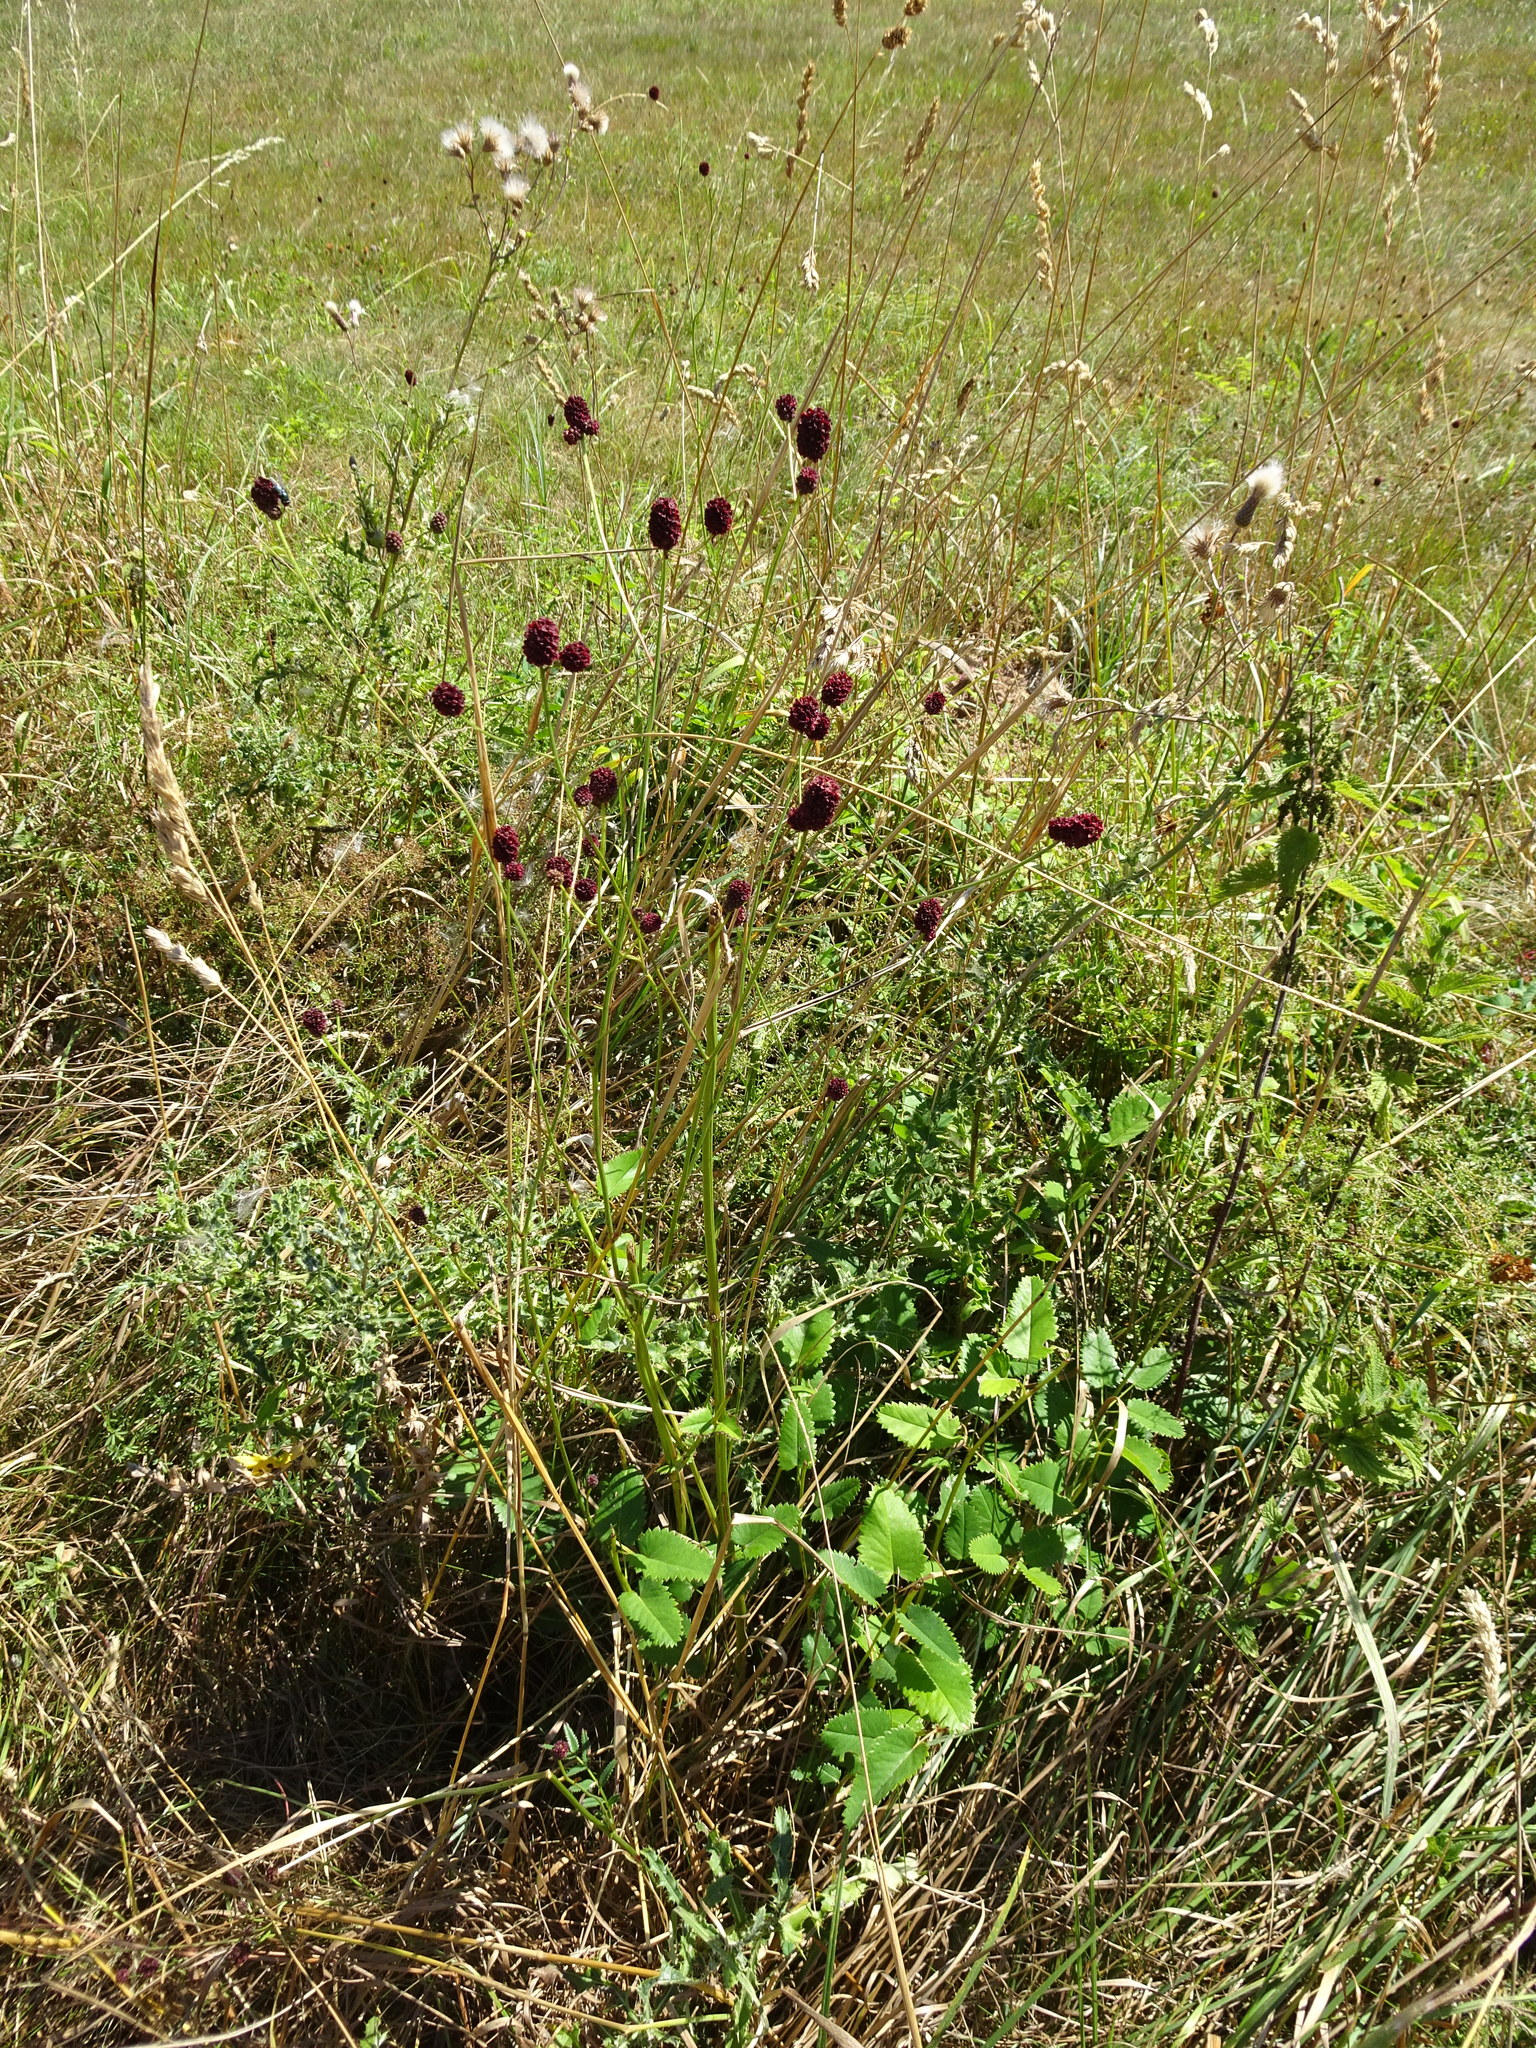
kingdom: Plantae
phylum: Tracheophyta
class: Magnoliopsida
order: Rosales
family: Rosaceae
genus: Sanguisorba
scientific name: Sanguisorba officinalis
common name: Great burnet
